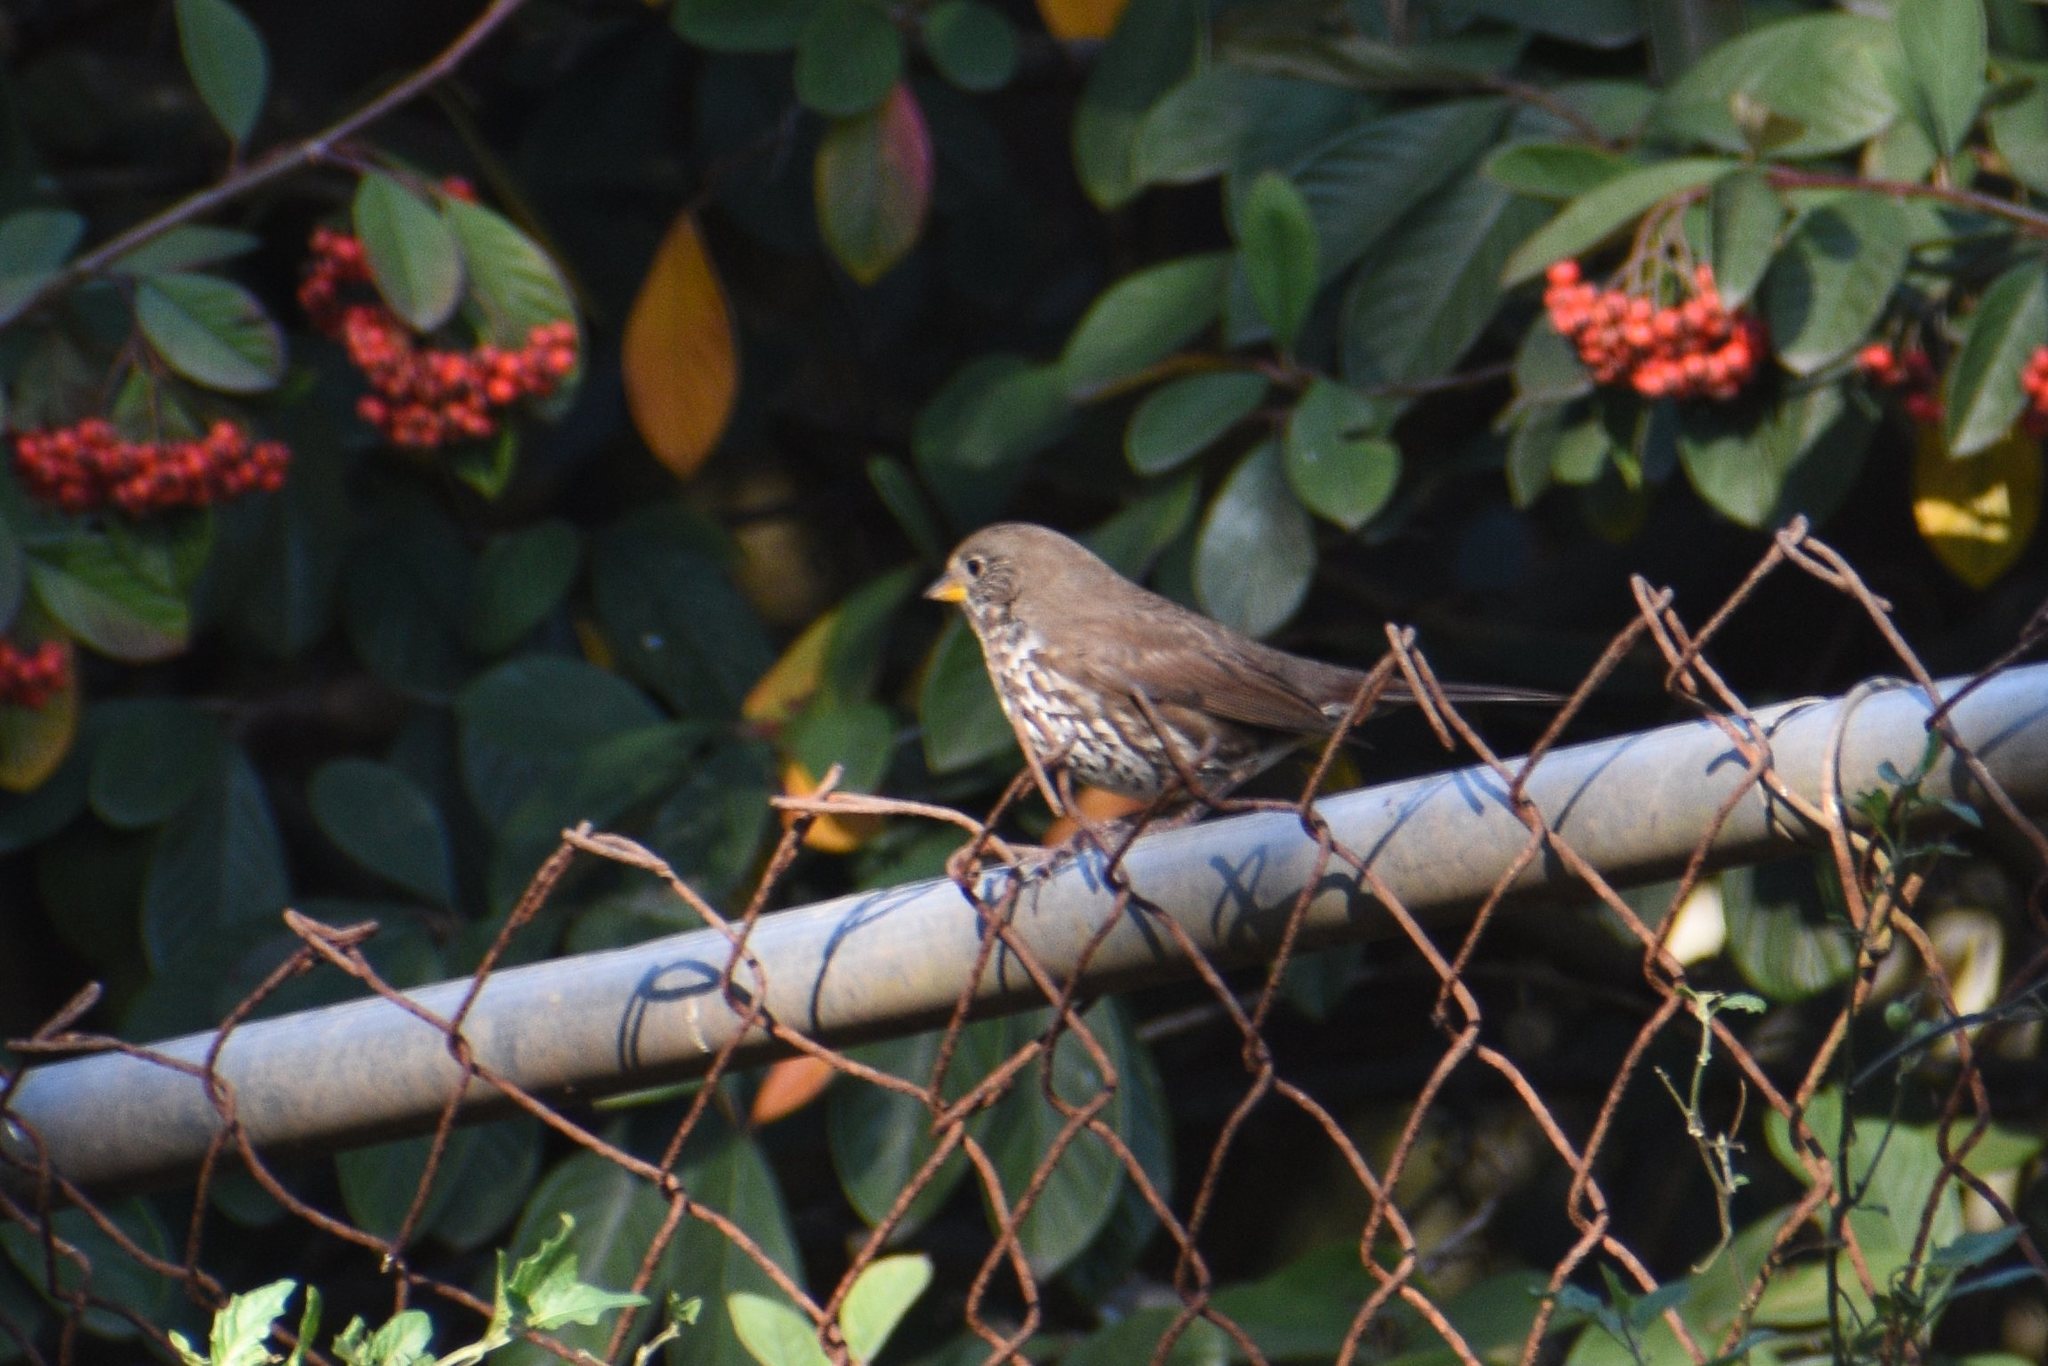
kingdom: Animalia
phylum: Chordata
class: Aves
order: Passeriformes
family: Passerellidae
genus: Passerella
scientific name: Passerella iliaca
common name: Fox sparrow
